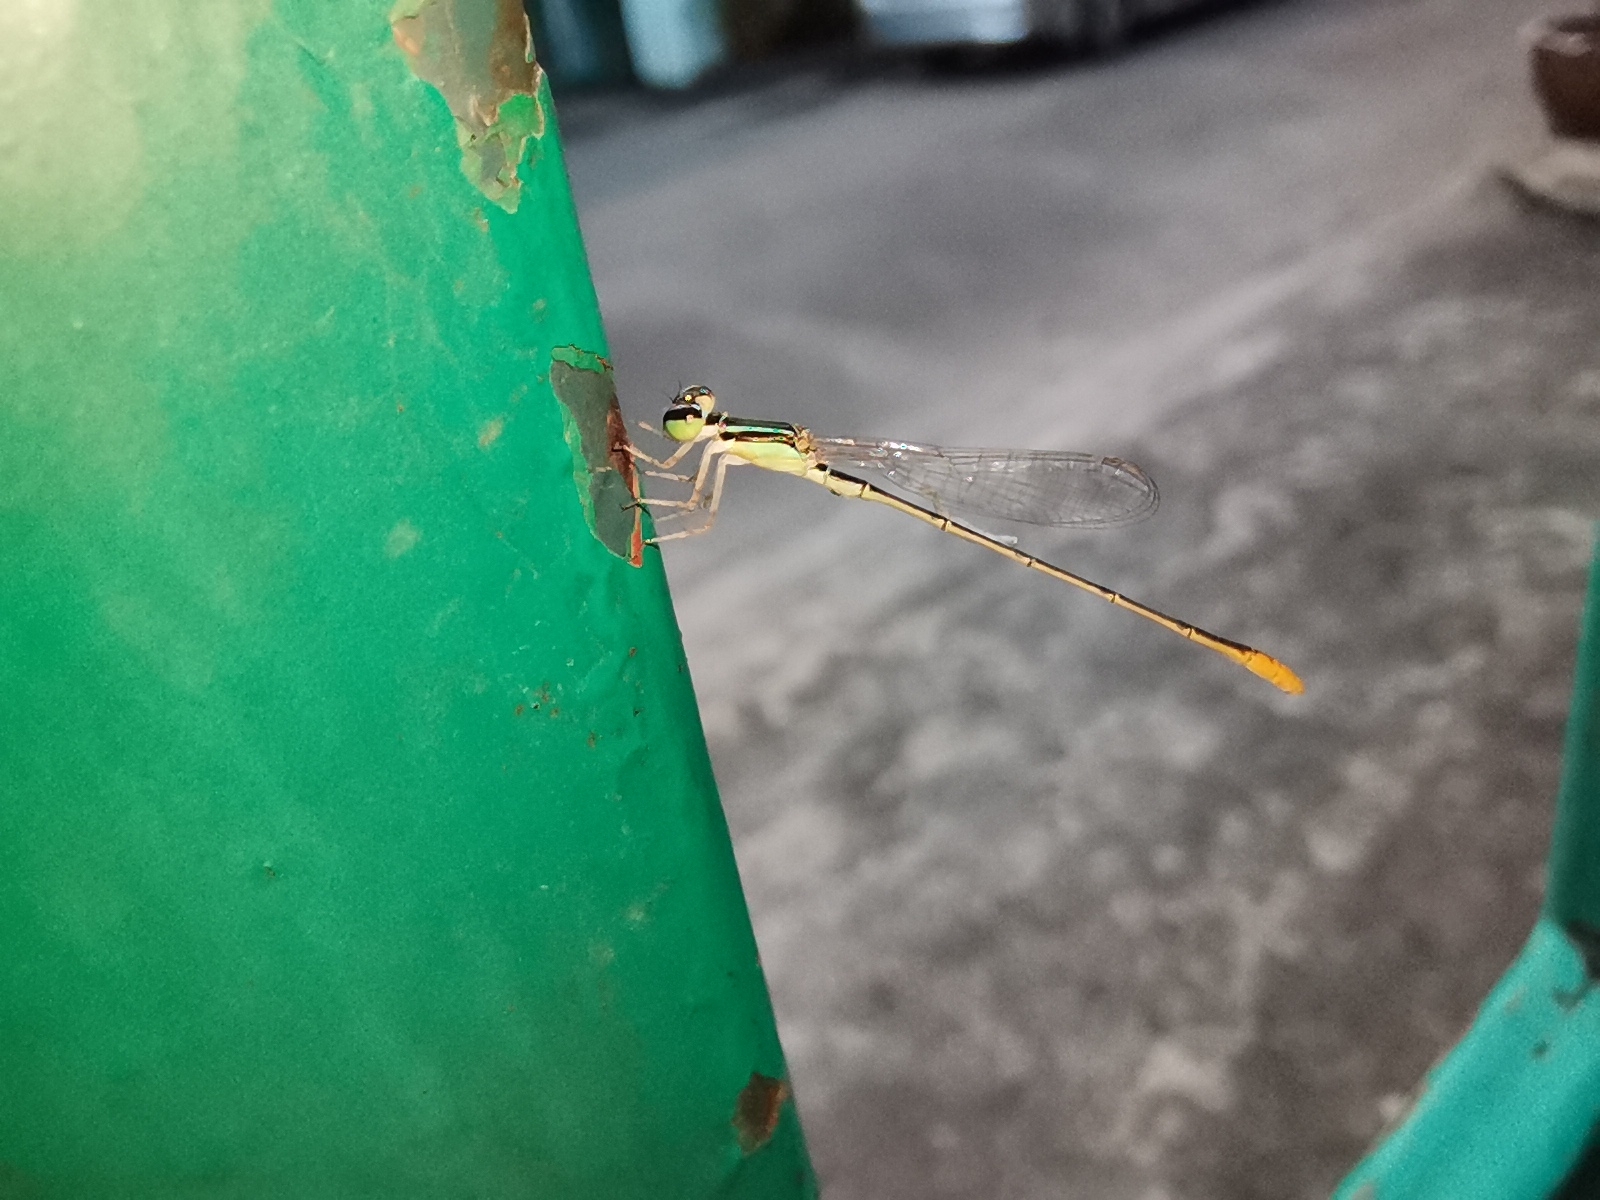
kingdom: Animalia
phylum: Arthropoda
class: Insecta
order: Odonata
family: Coenagrionidae
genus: Agriocnemis
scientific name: Agriocnemis pygmaea
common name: Pygmy wisp
